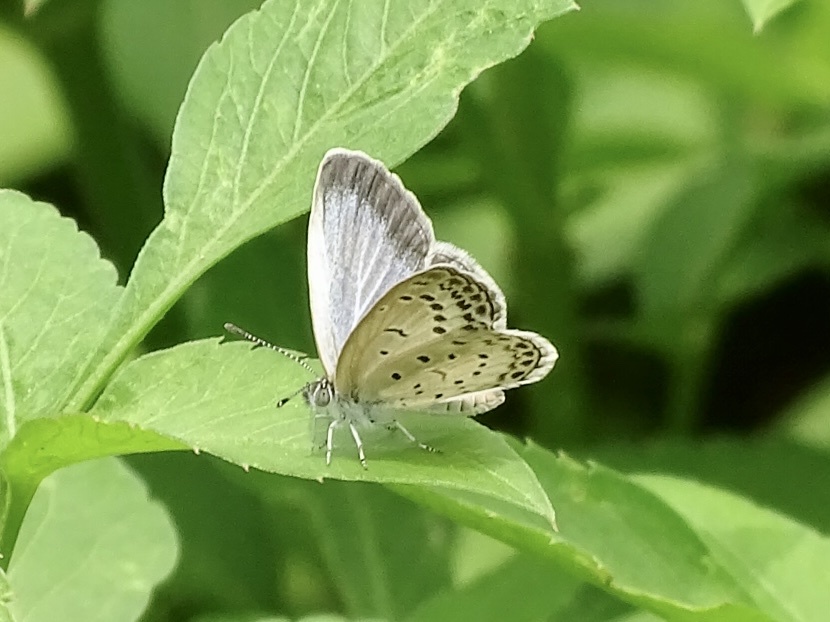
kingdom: Animalia
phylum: Arthropoda
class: Insecta
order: Lepidoptera
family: Lycaenidae
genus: Pseudozizeeria
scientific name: Pseudozizeeria maha
